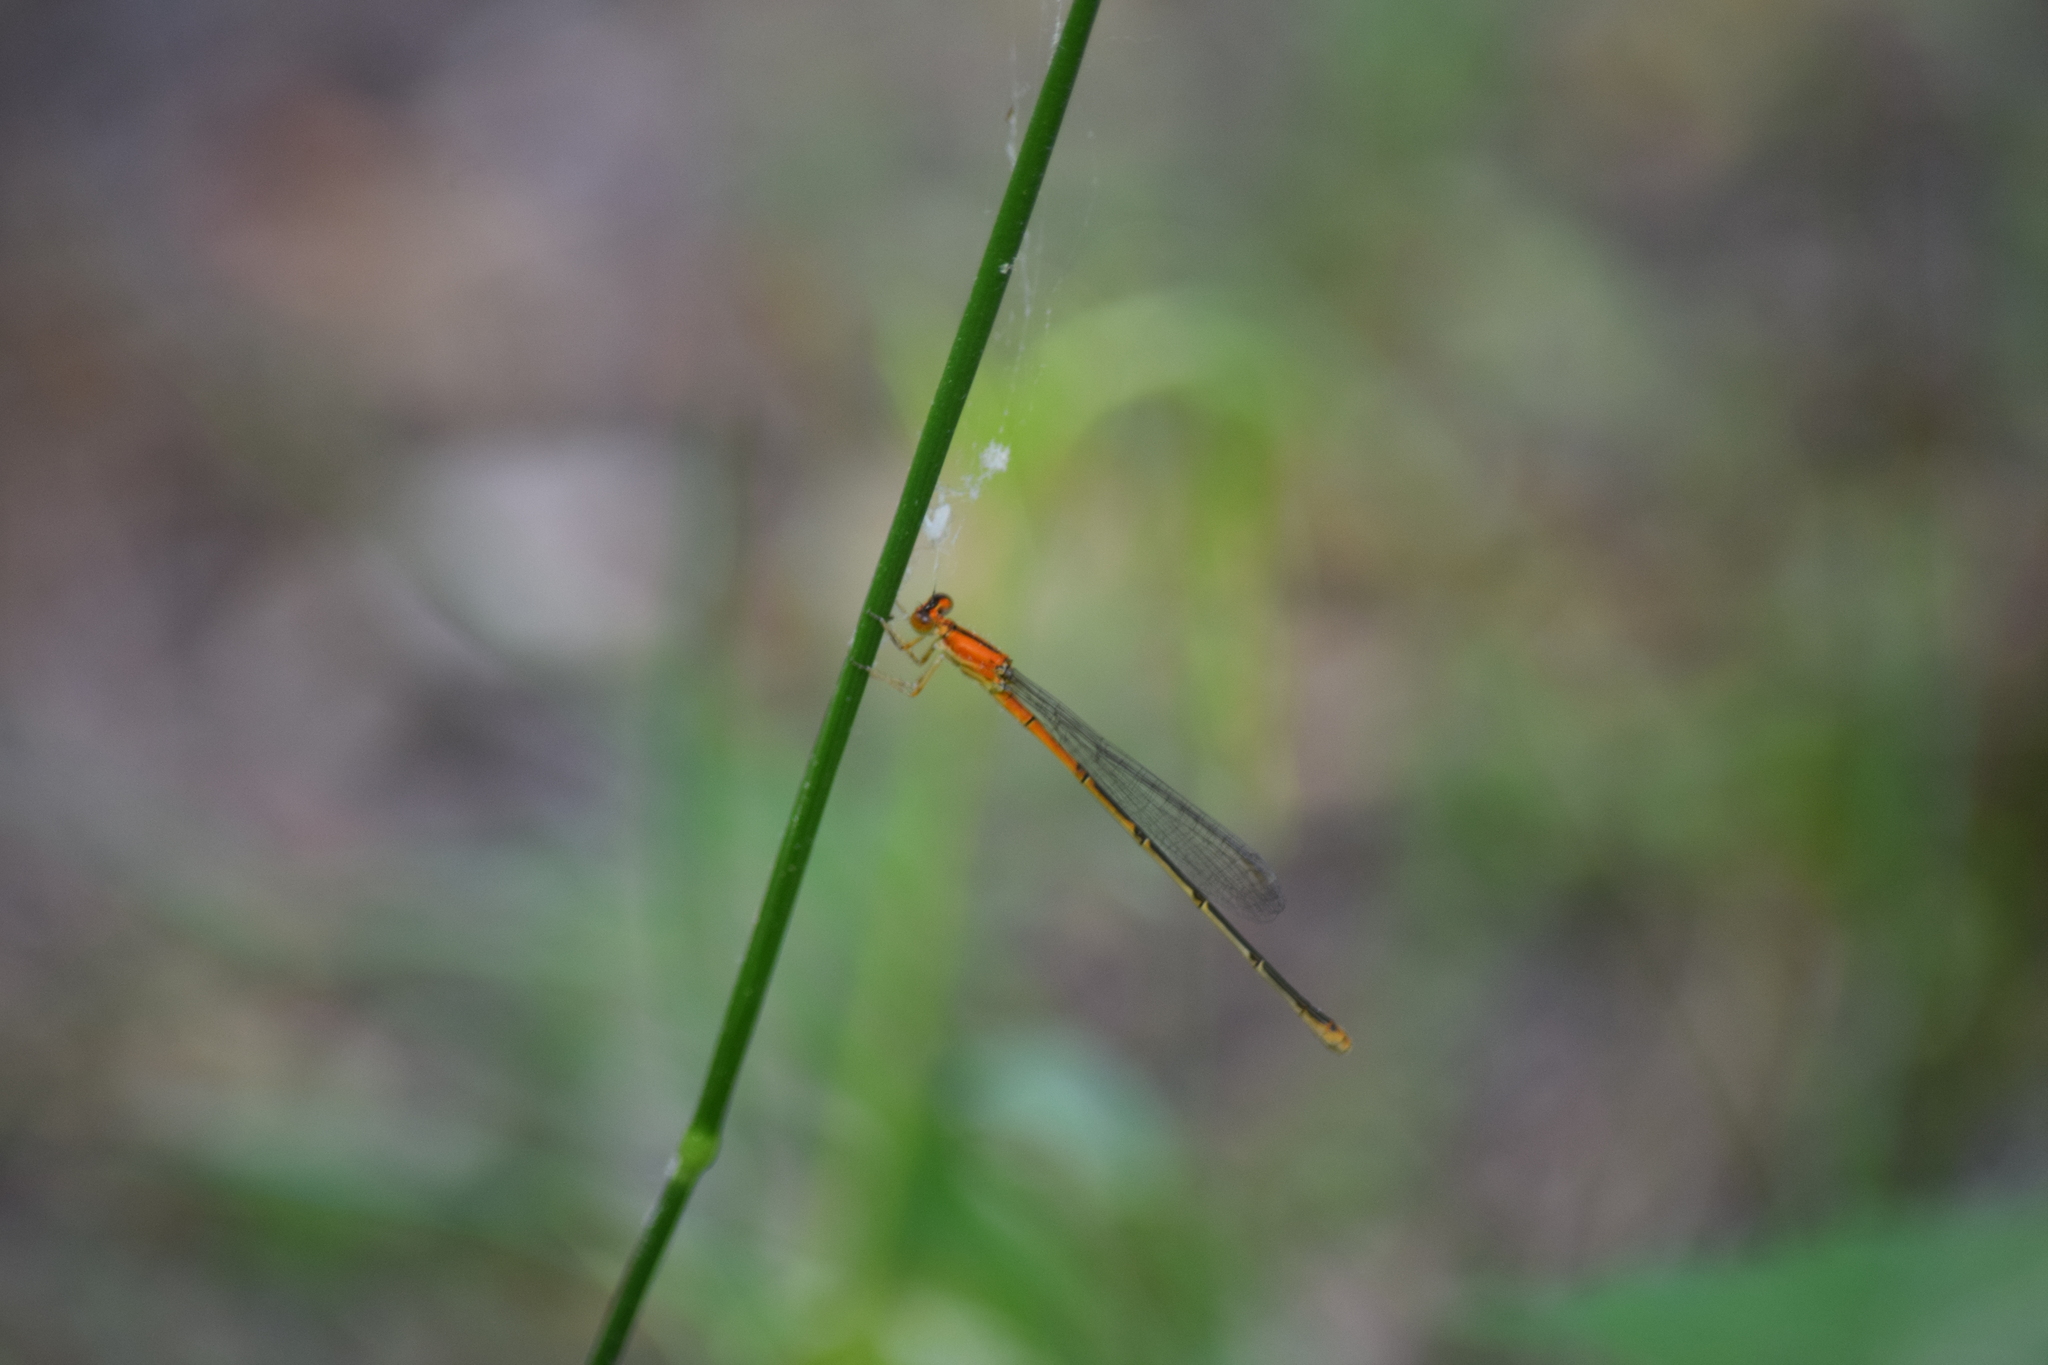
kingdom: Animalia
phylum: Arthropoda
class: Insecta
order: Odonata
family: Coenagrionidae
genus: Ischnura
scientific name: Ischnura prognata
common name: Furtive forktail
